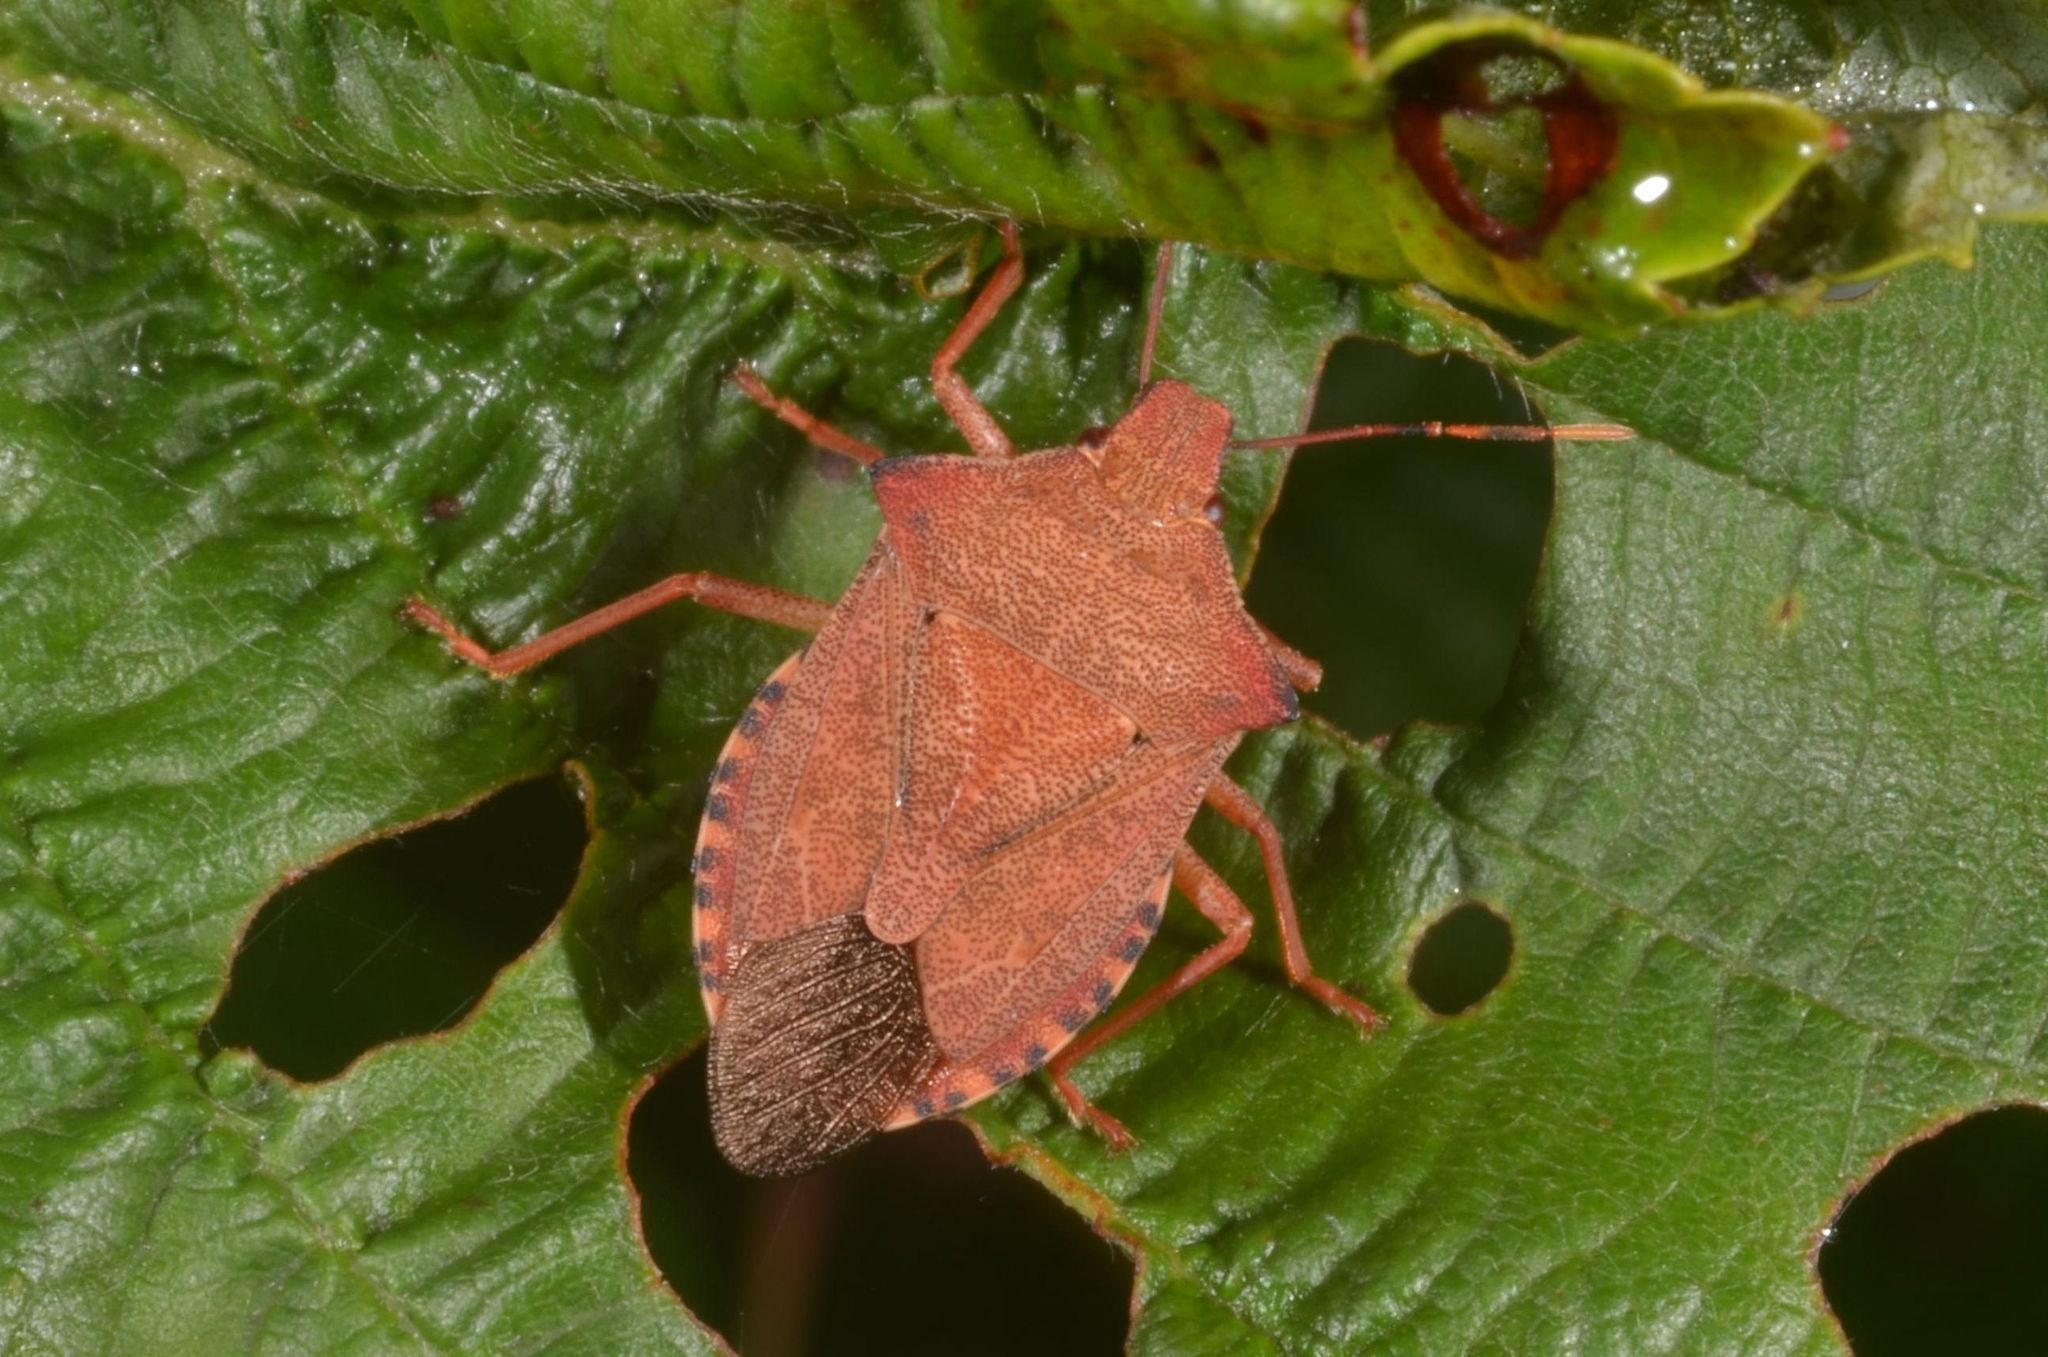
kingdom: Animalia
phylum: Arthropoda
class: Insecta
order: Hemiptera
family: Pentatomidae
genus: Arma
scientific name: Arma custos
